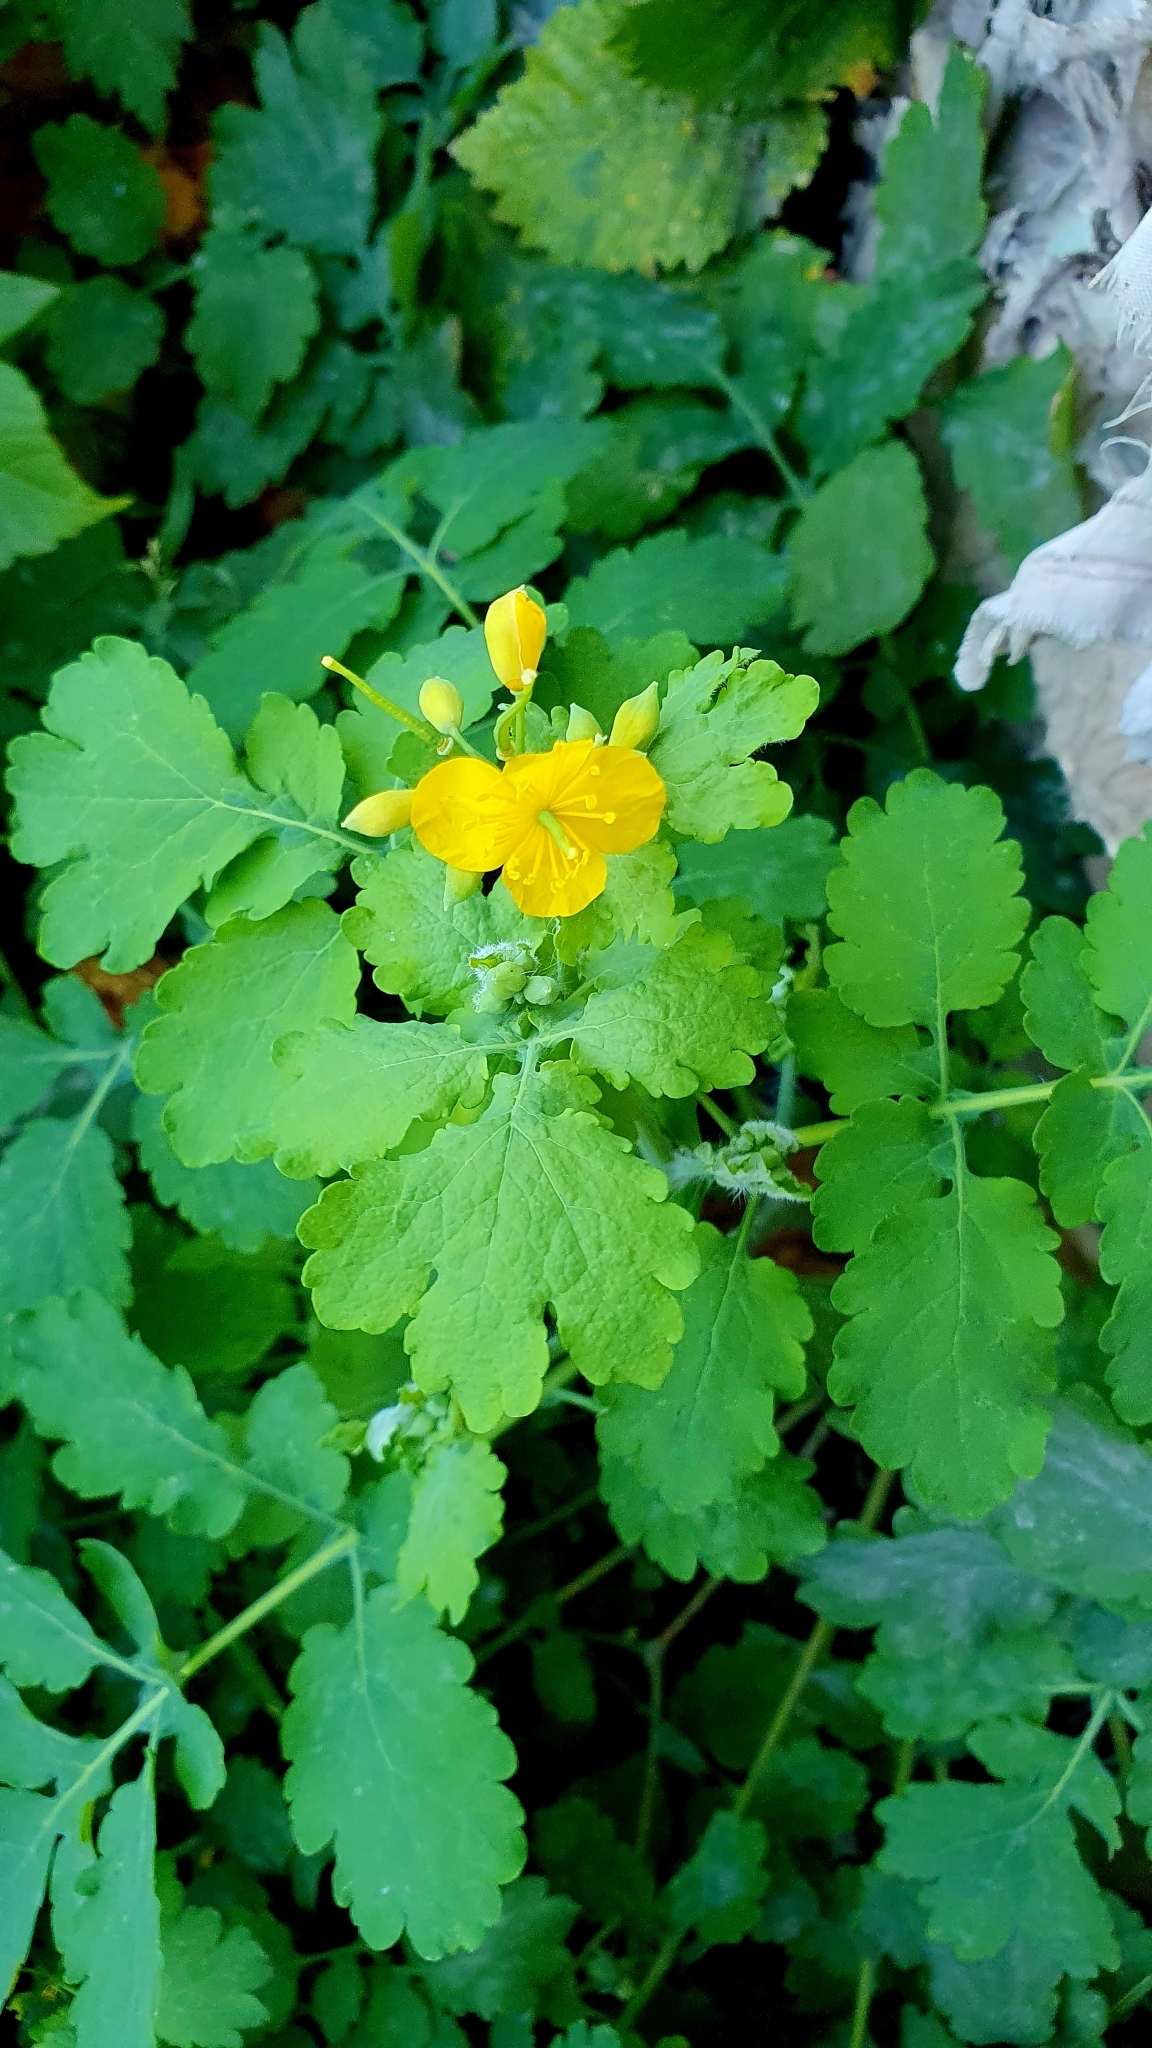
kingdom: Plantae
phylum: Tracheophyta
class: Magnoliopsida
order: Ranunculales
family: Papaveraceae
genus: Chelidonium
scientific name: Chelidonium majus
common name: Greater celandine
